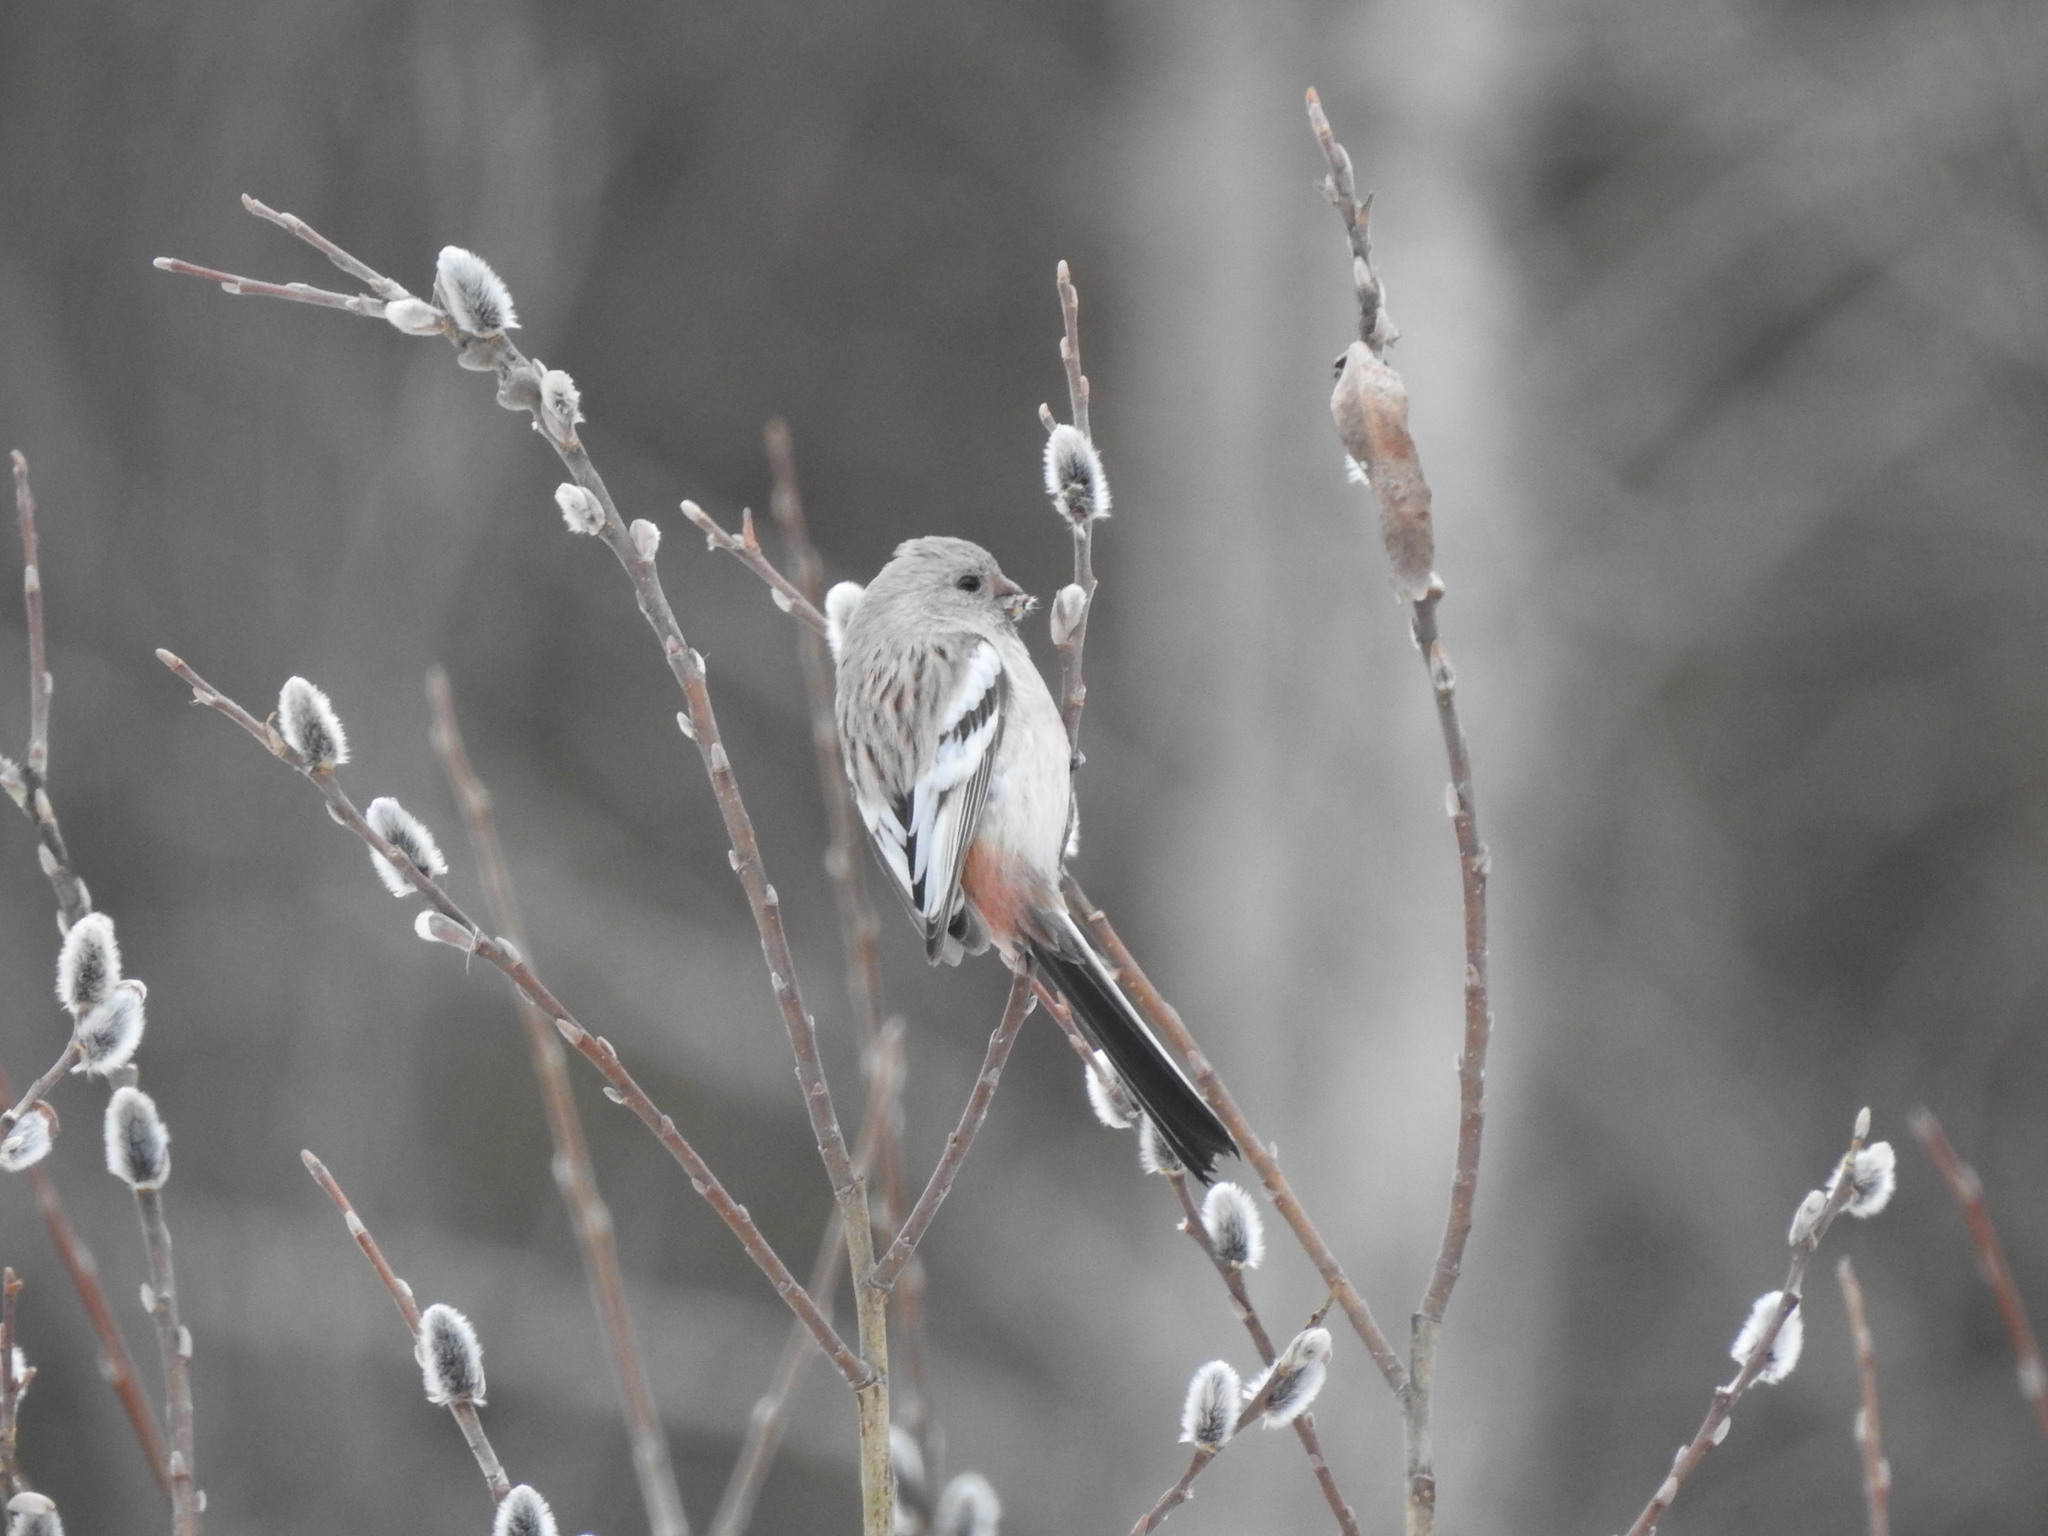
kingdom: Animalia
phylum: Chordata
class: Aves
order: Passeriformes
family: Fringillidae
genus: Carpodacus
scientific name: Carpodacus sibiricus
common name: Long-tailed rosefinch
